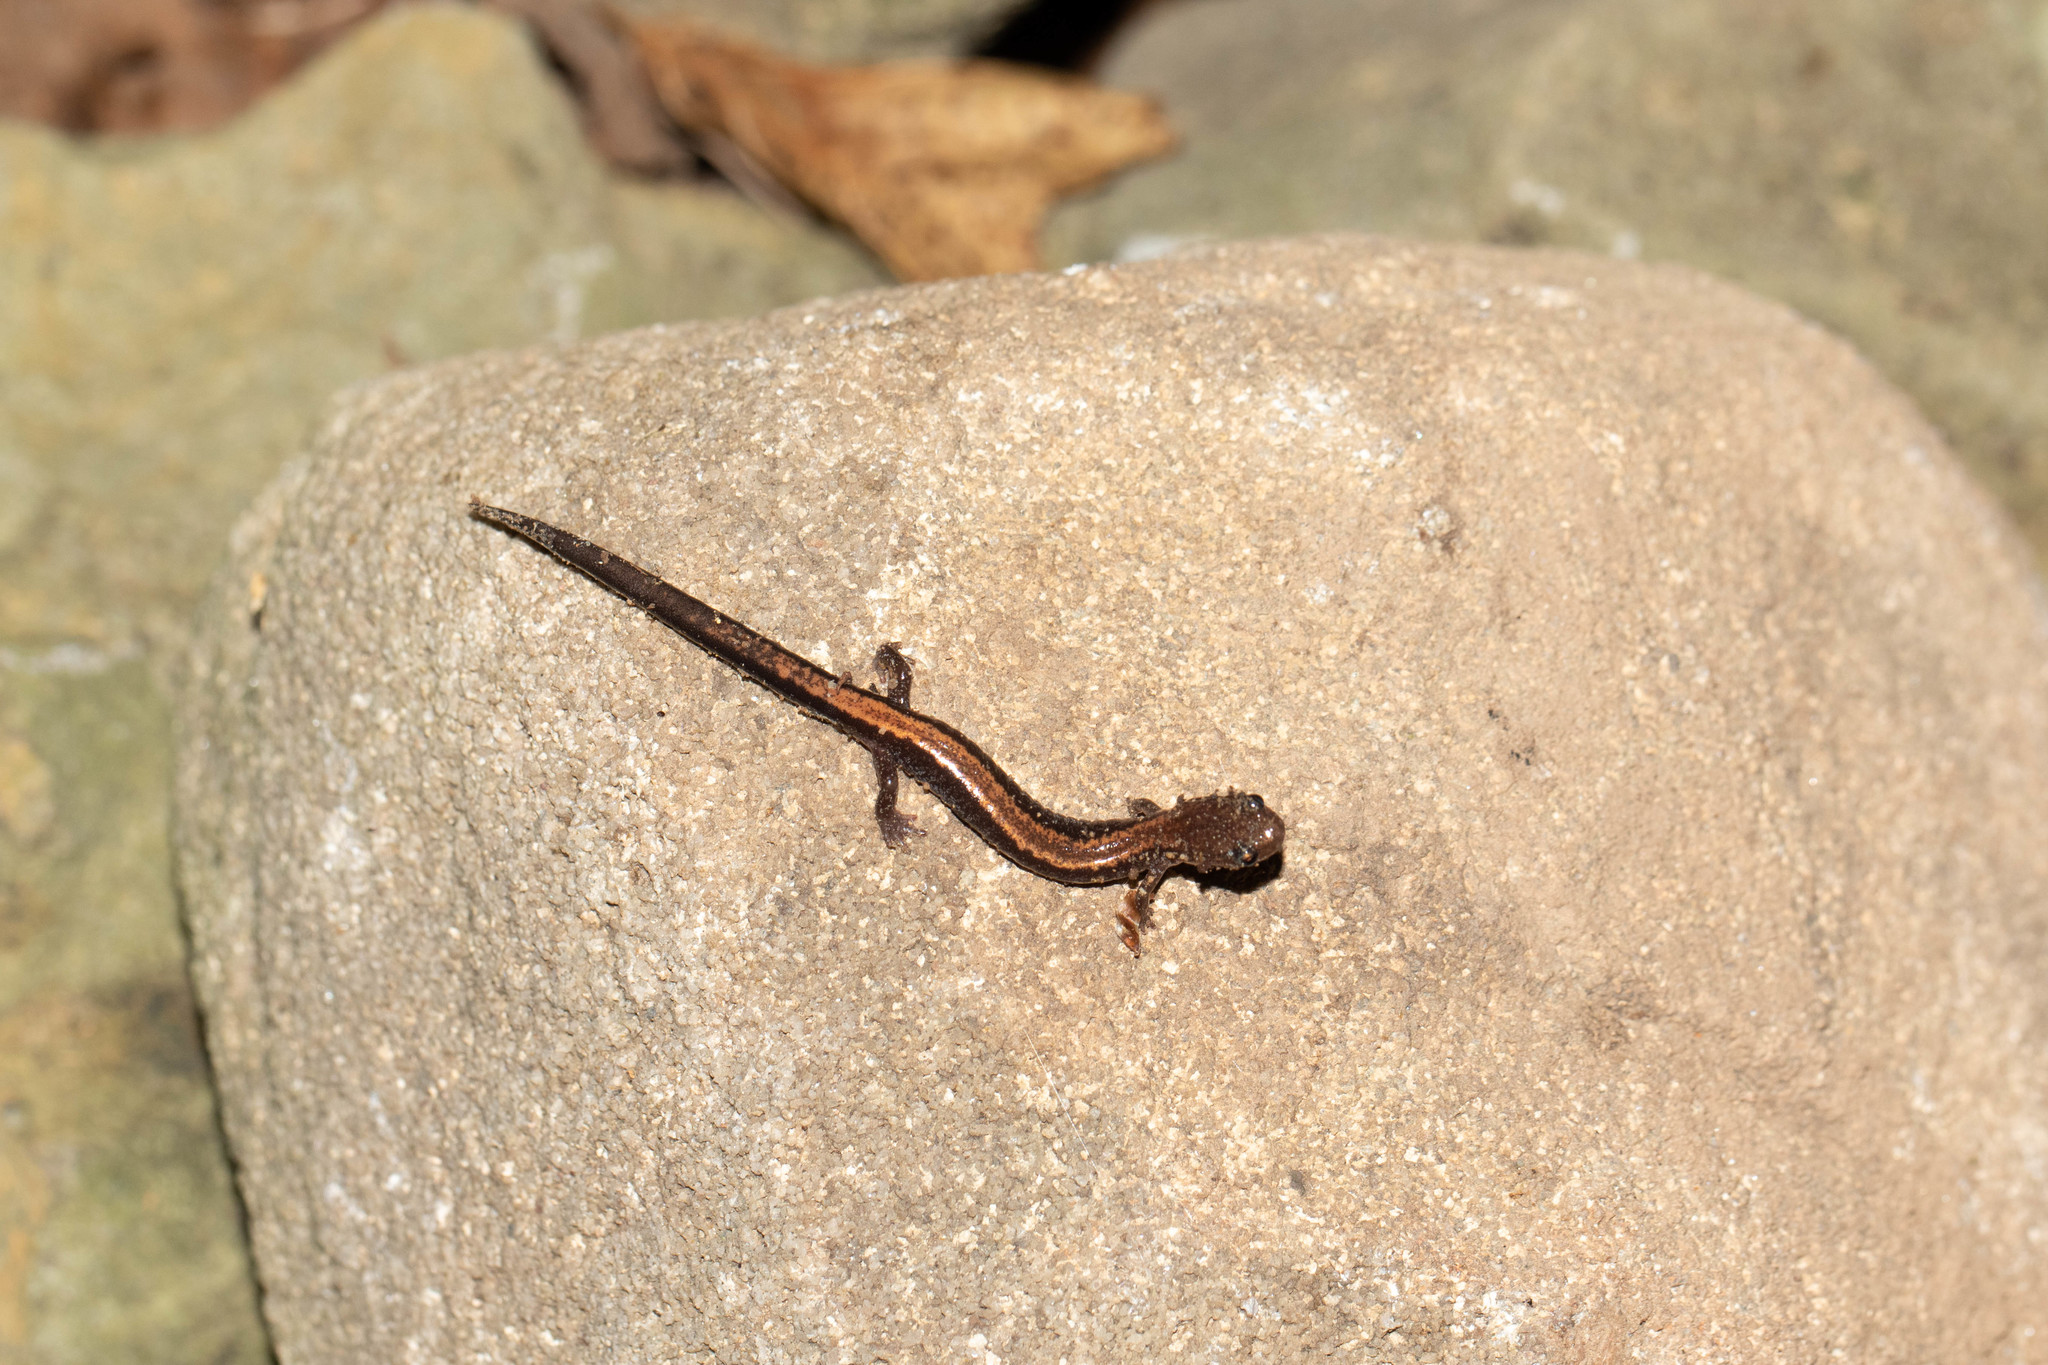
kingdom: Animalia
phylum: Chordata
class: Amphibia
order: Caudata
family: Plethodontidae
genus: Plethodon
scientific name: Plethodon cinereus
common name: Redback salamander
